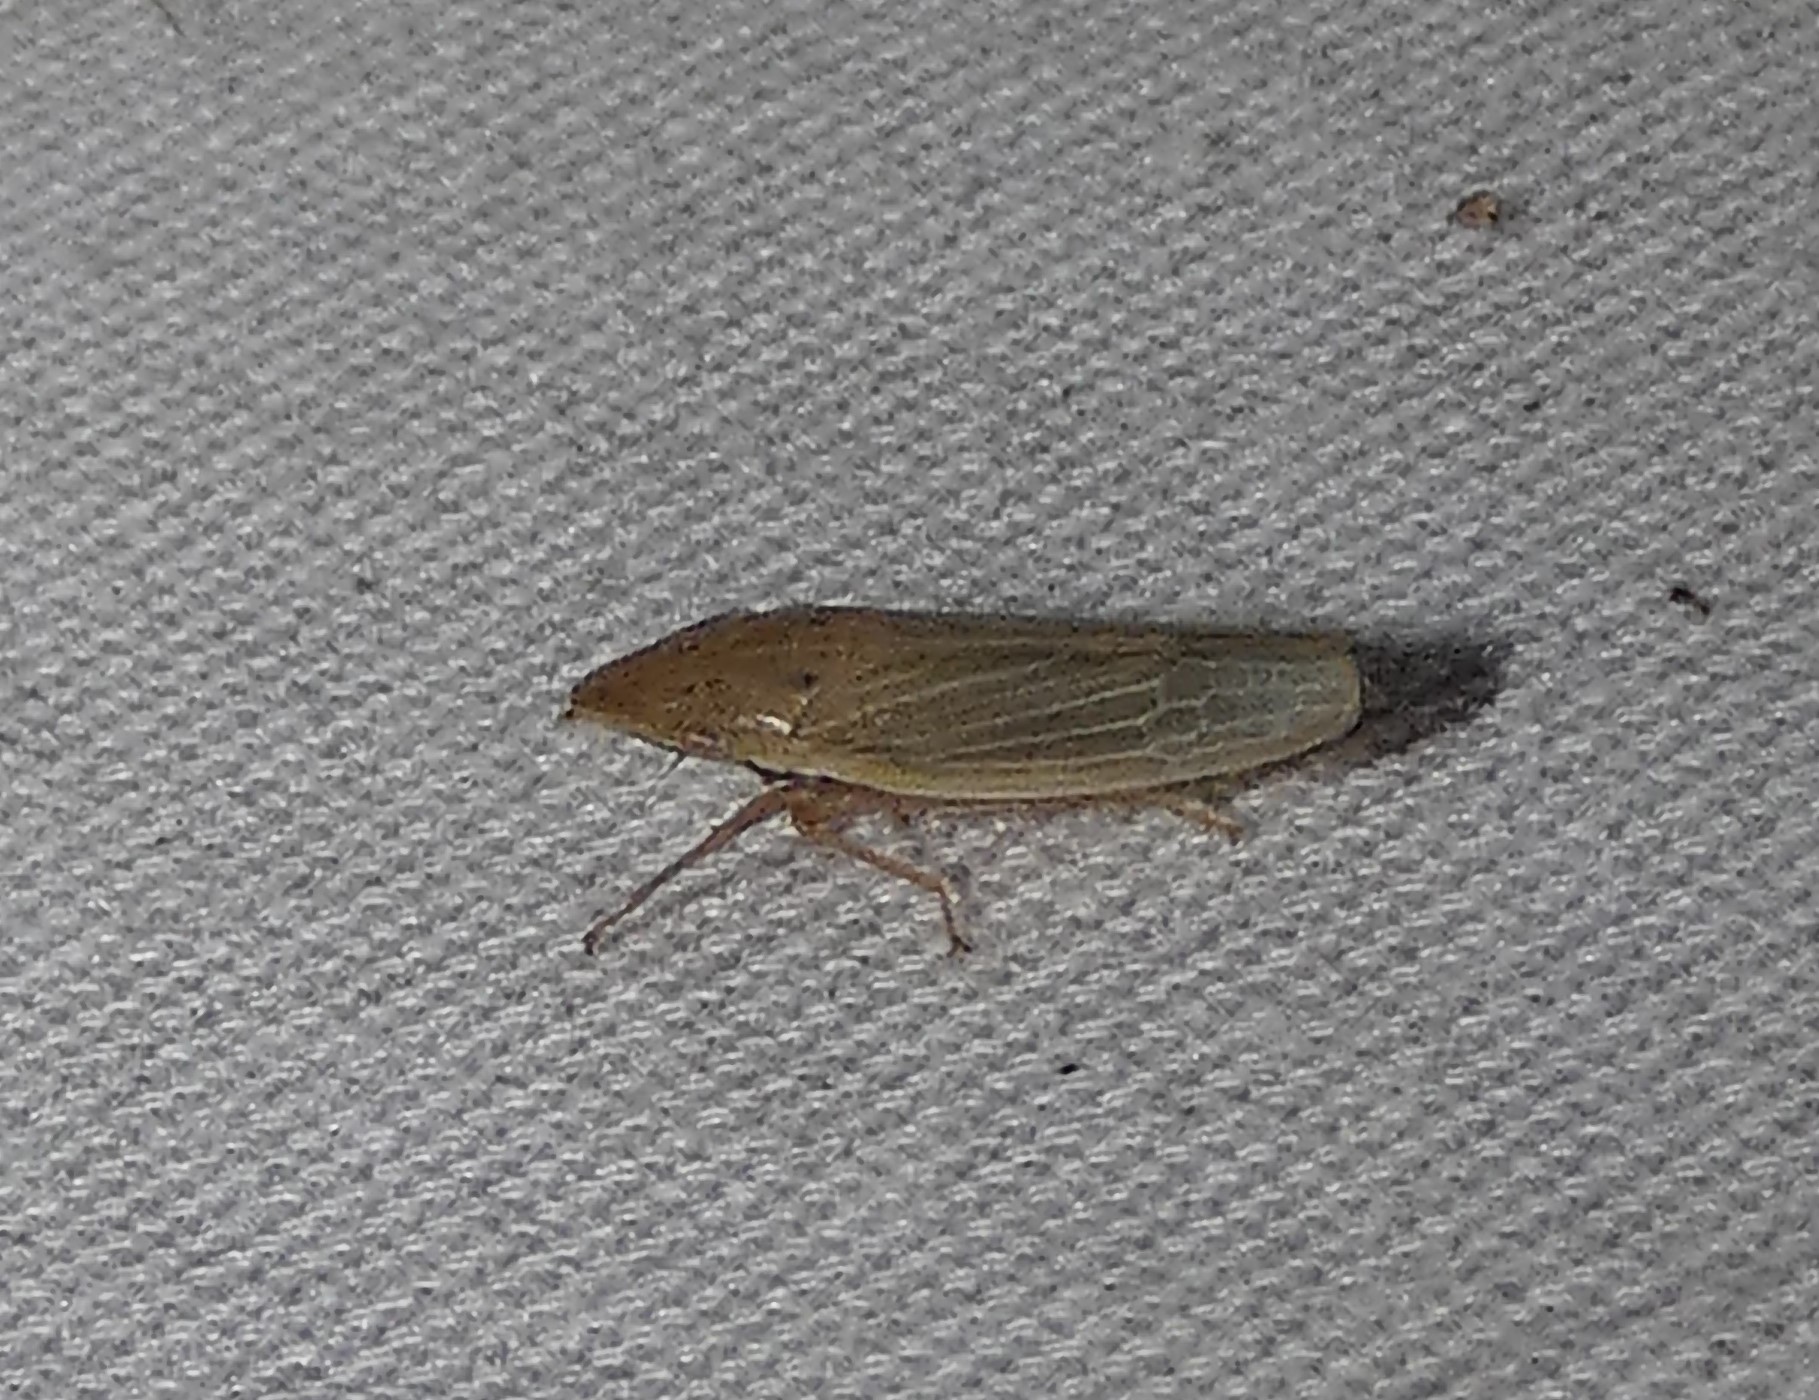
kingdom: Animalia
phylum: Arthropoda
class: Insecta
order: Hemiptera
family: Cicadellidae
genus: Draeculacephala
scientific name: Draeculacephala septemguttata
